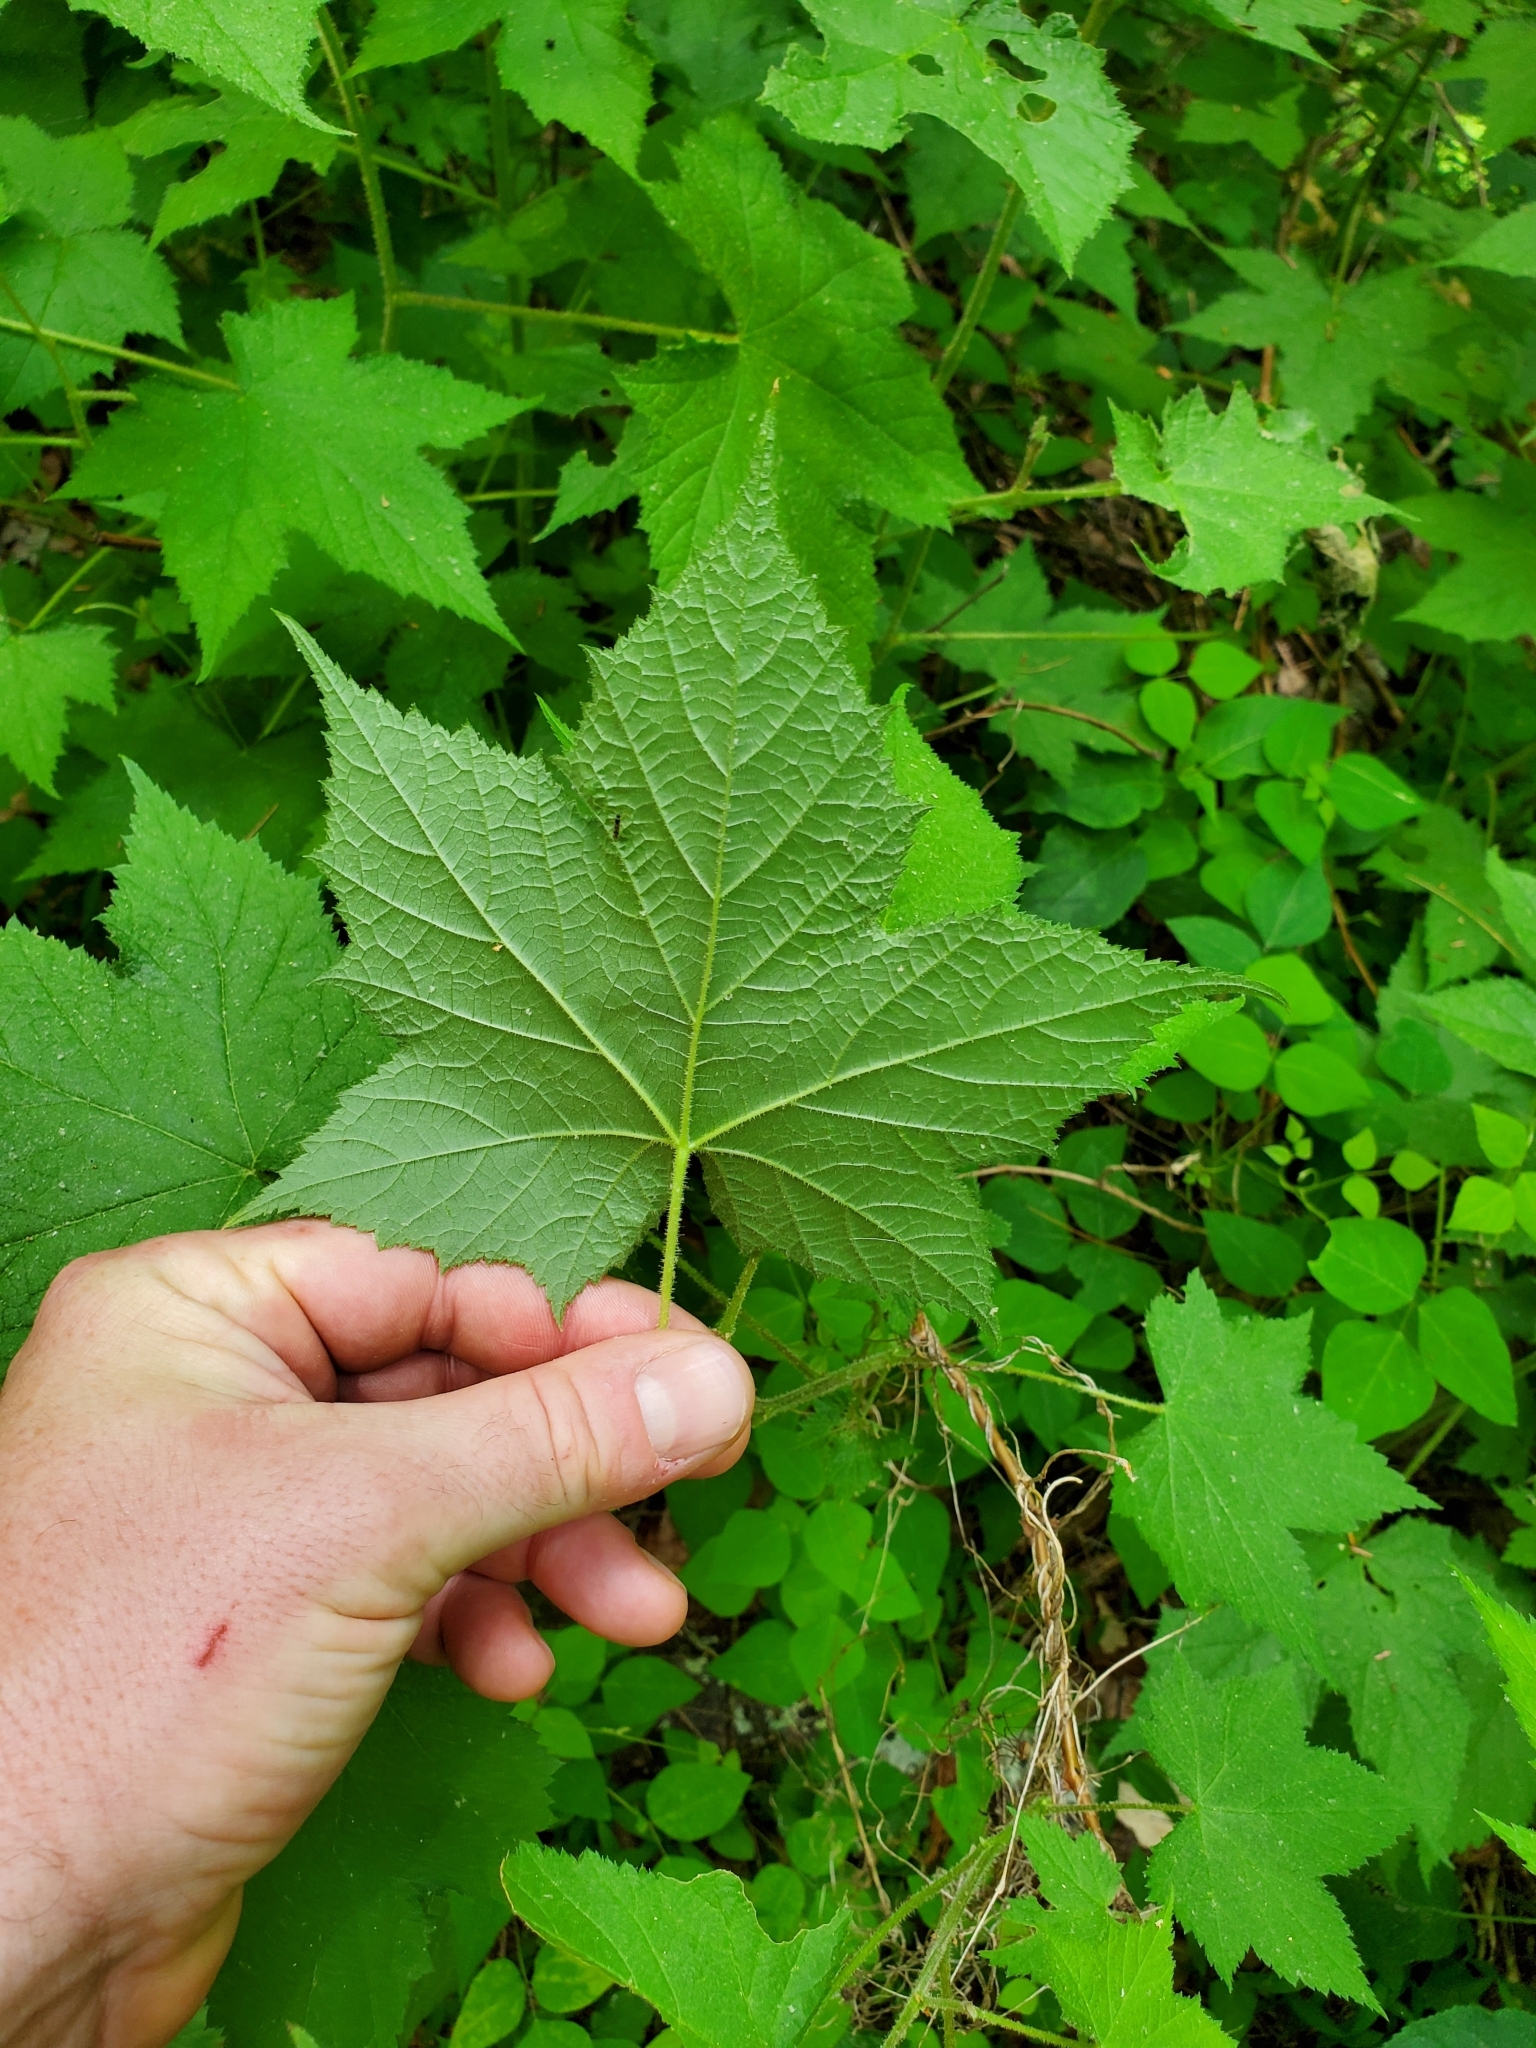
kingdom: Plantae
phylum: Tracheophyta
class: Magnoliopsida
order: Rosales
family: Rosaceae
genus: Rubus
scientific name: Rubus odoratus
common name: Purple-flowered raspberry
